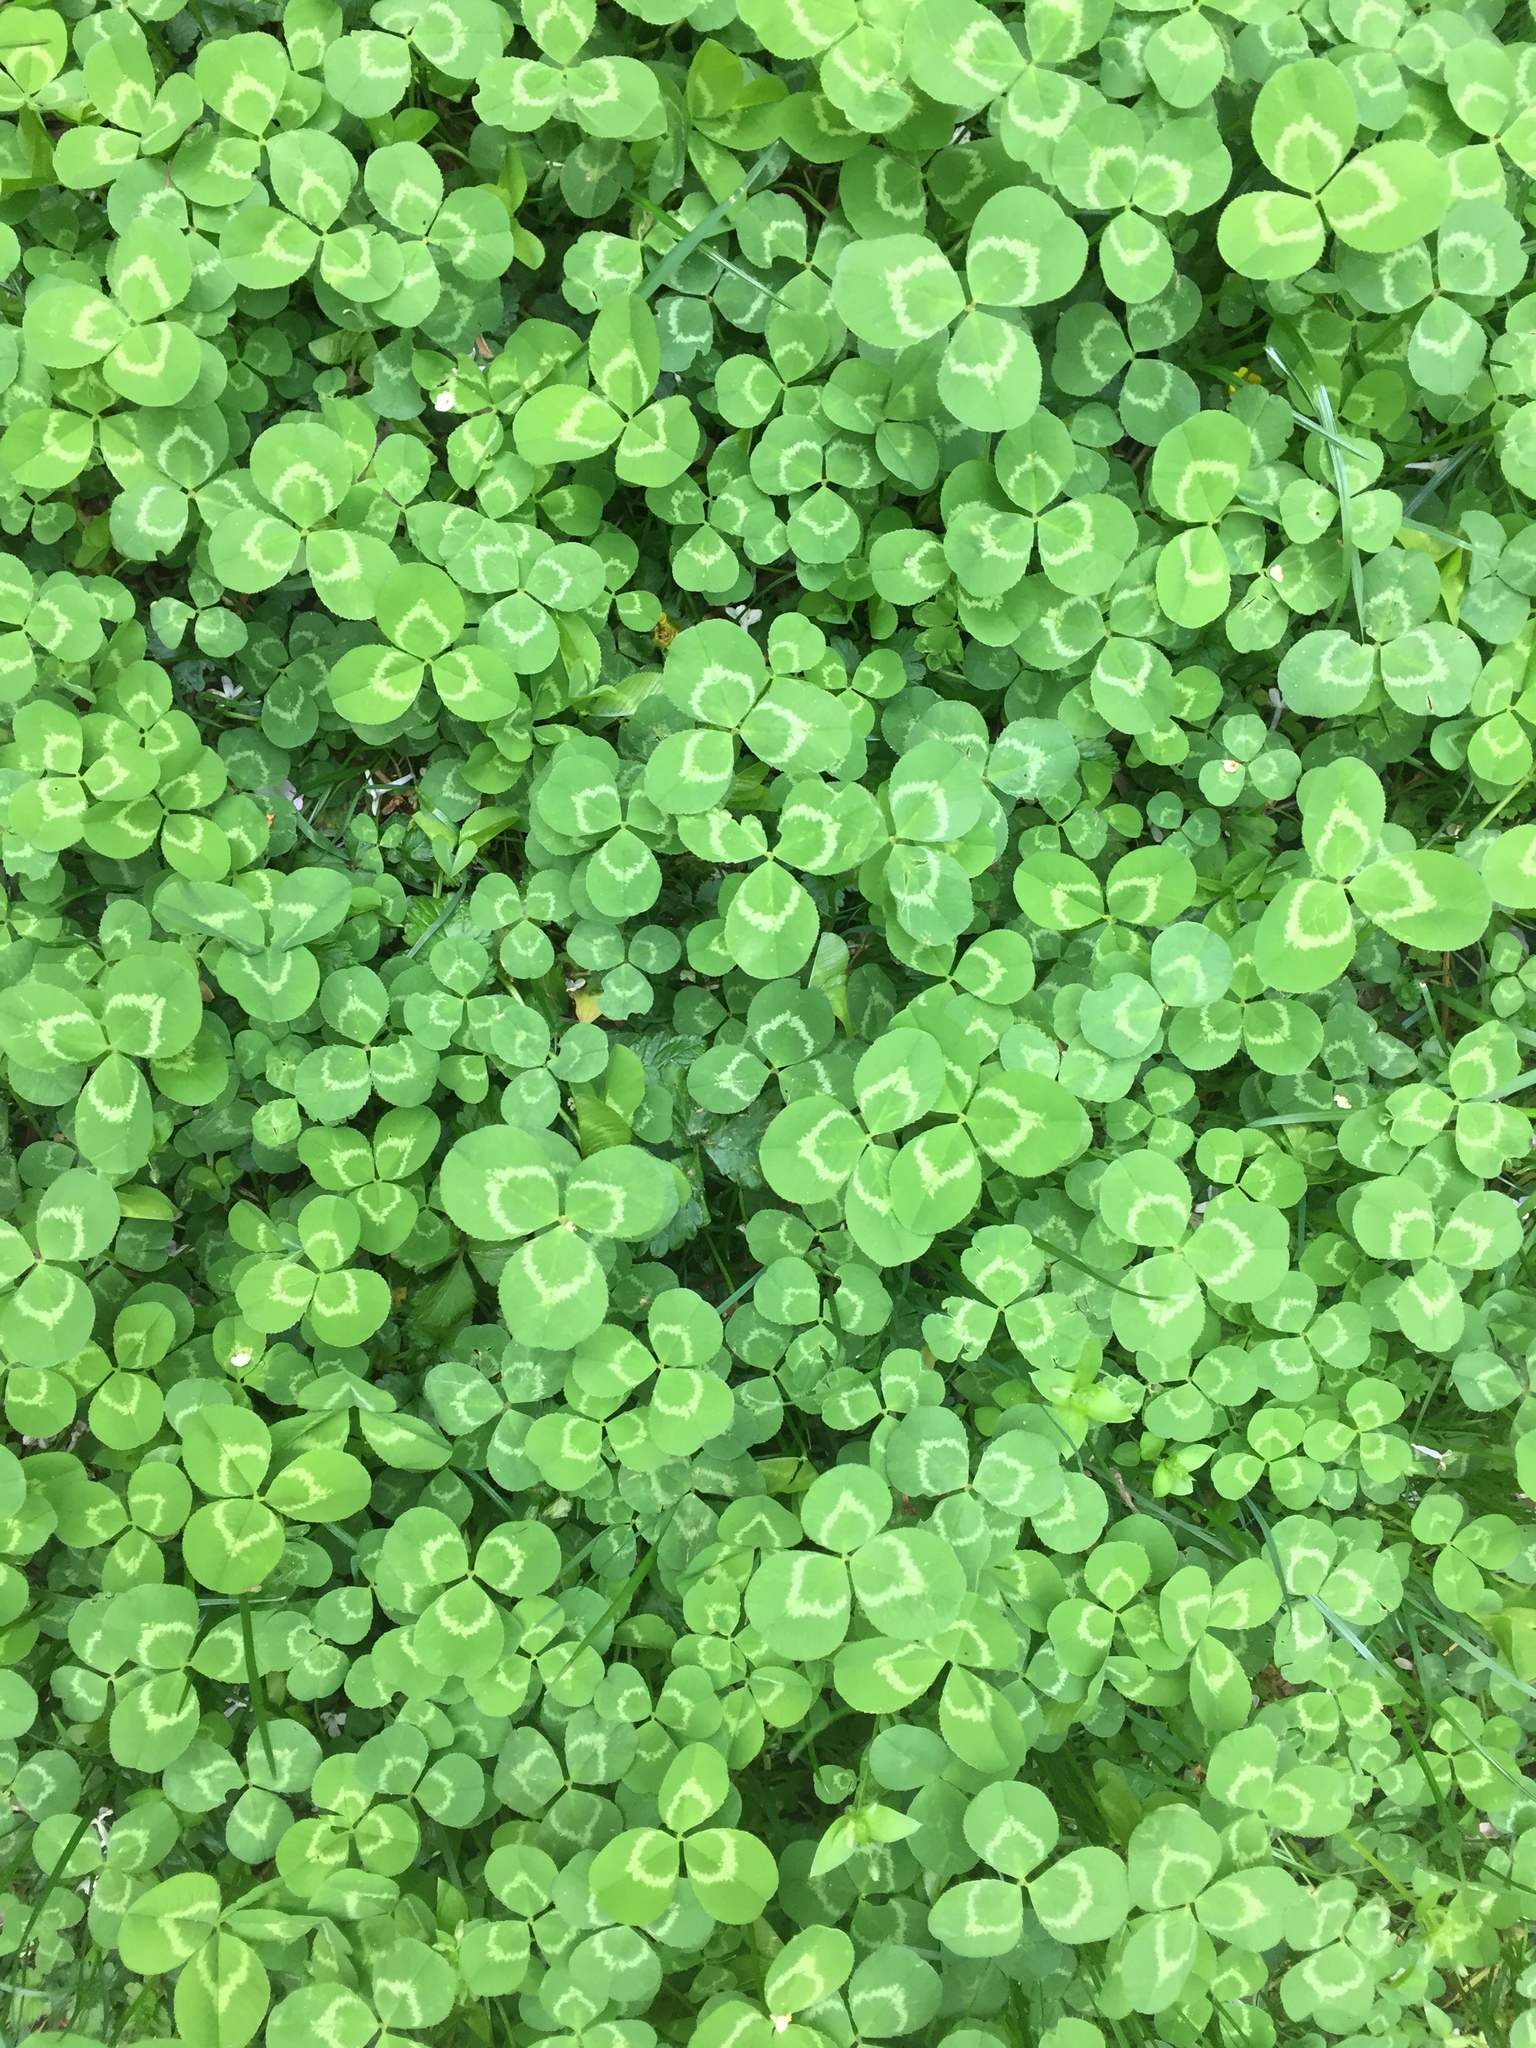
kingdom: Plantae
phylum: Tracheophyta
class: Magnoliopsida
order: Fabales
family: Fabaceae
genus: Trifolium
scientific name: Trifolium repens
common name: White clover
